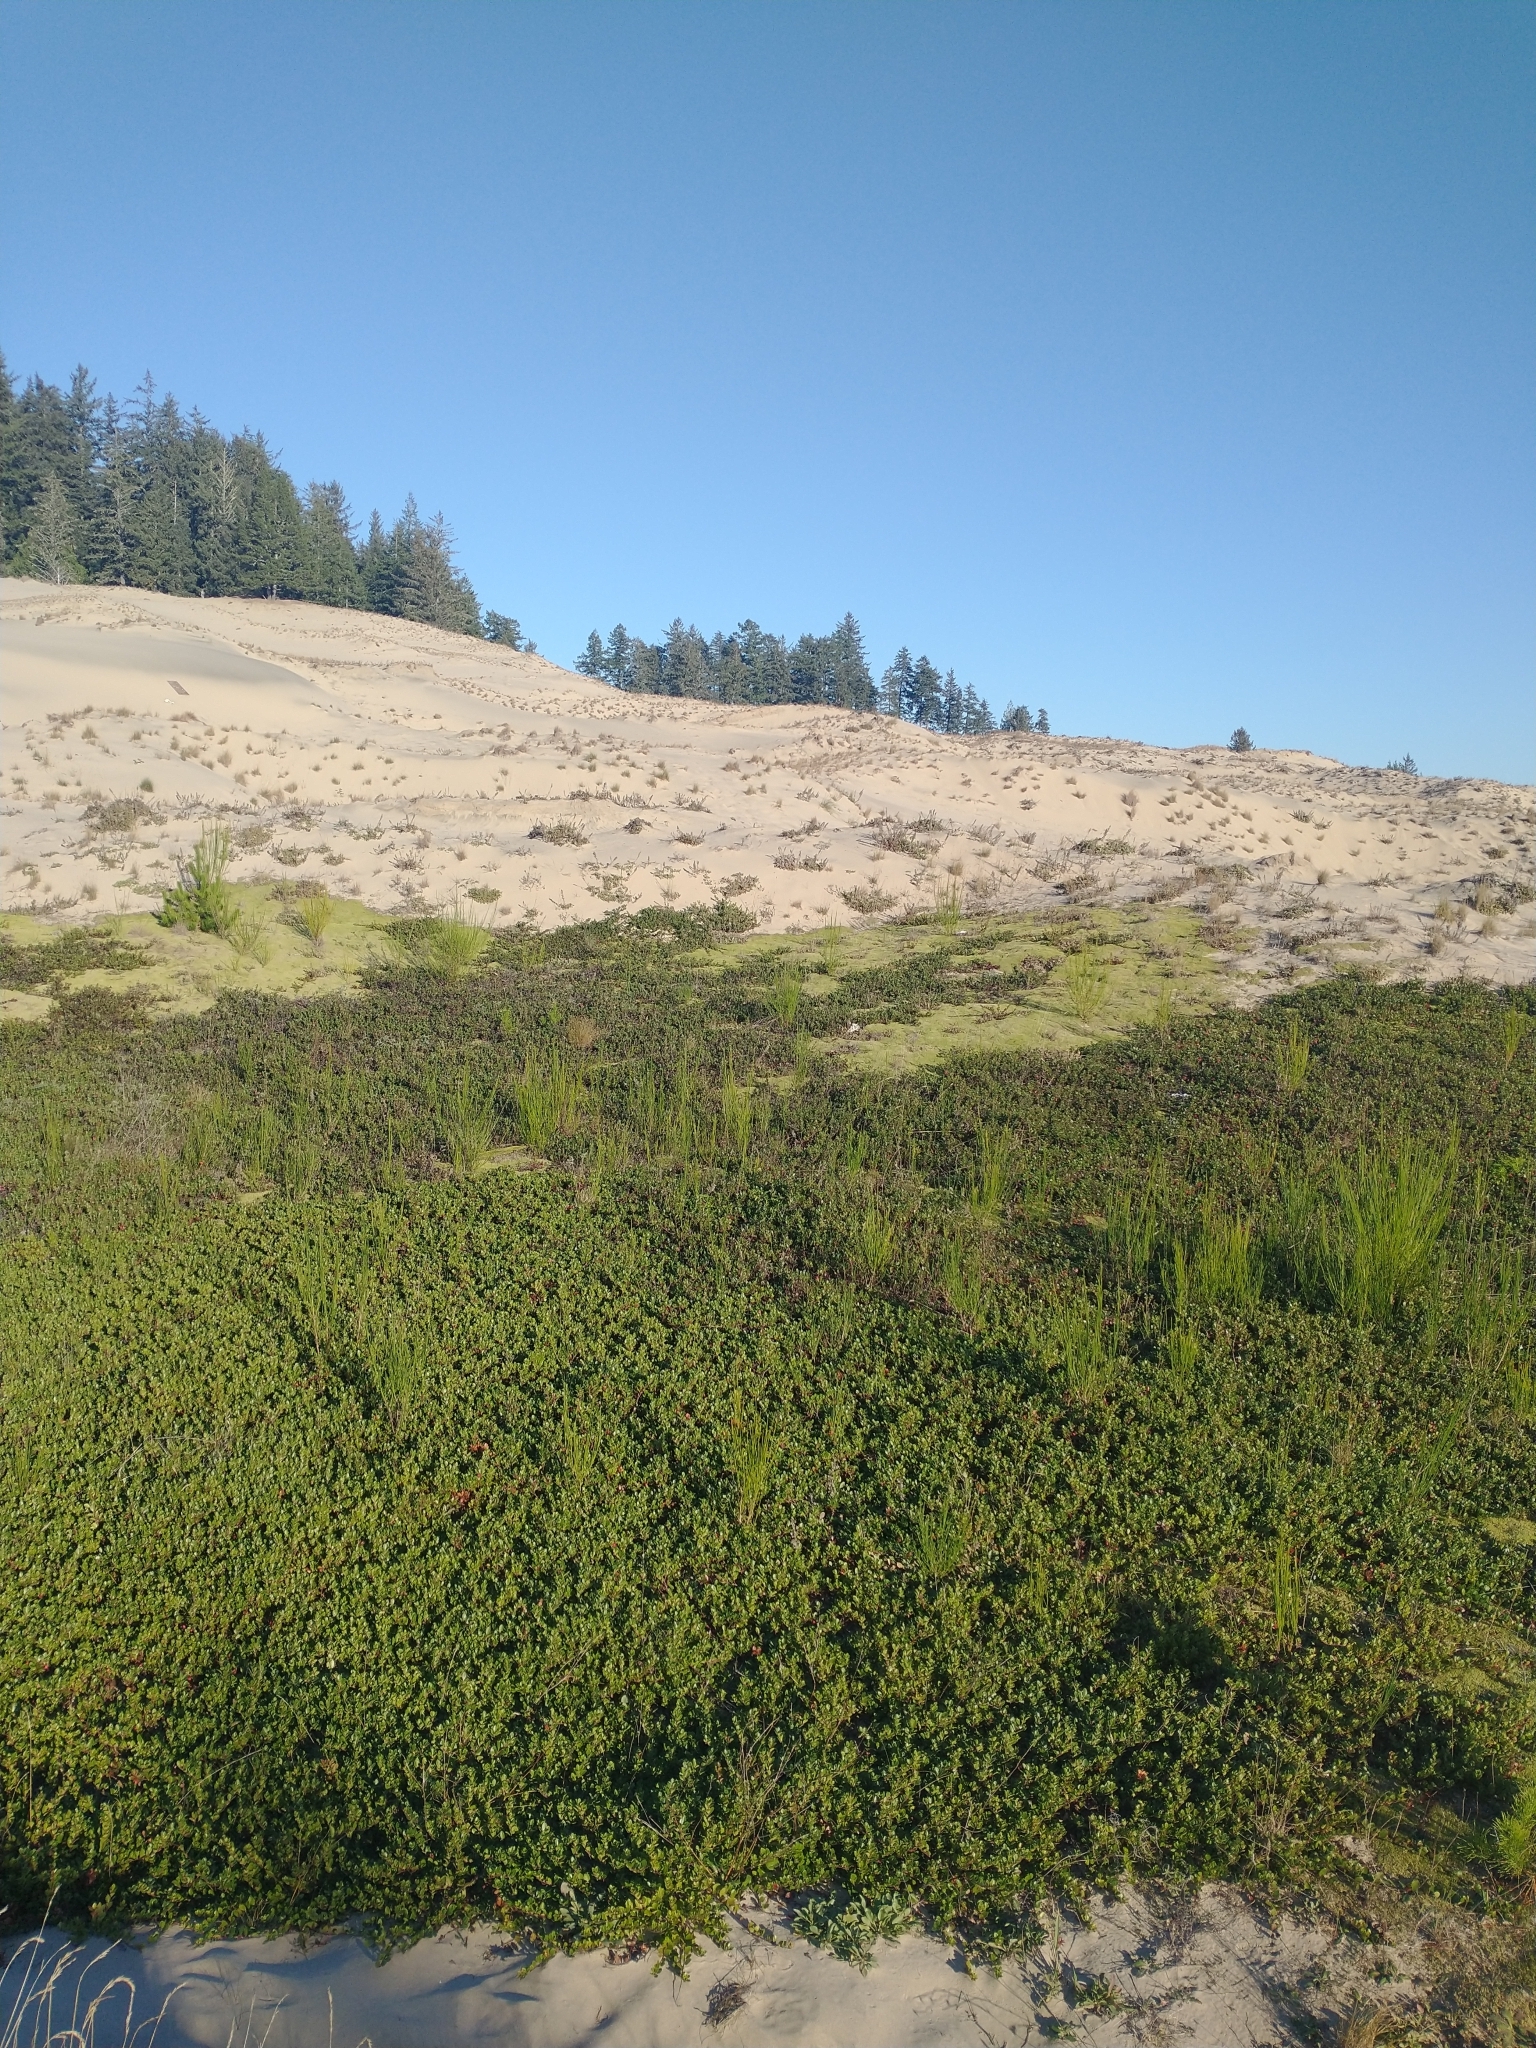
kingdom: Plantae
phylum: Tracheophyta
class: Magnoliopsida
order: Ericales
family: Ericaceae
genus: Arctostaphylos
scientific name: Arctostaphylos uva-ursi
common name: Bearberry
